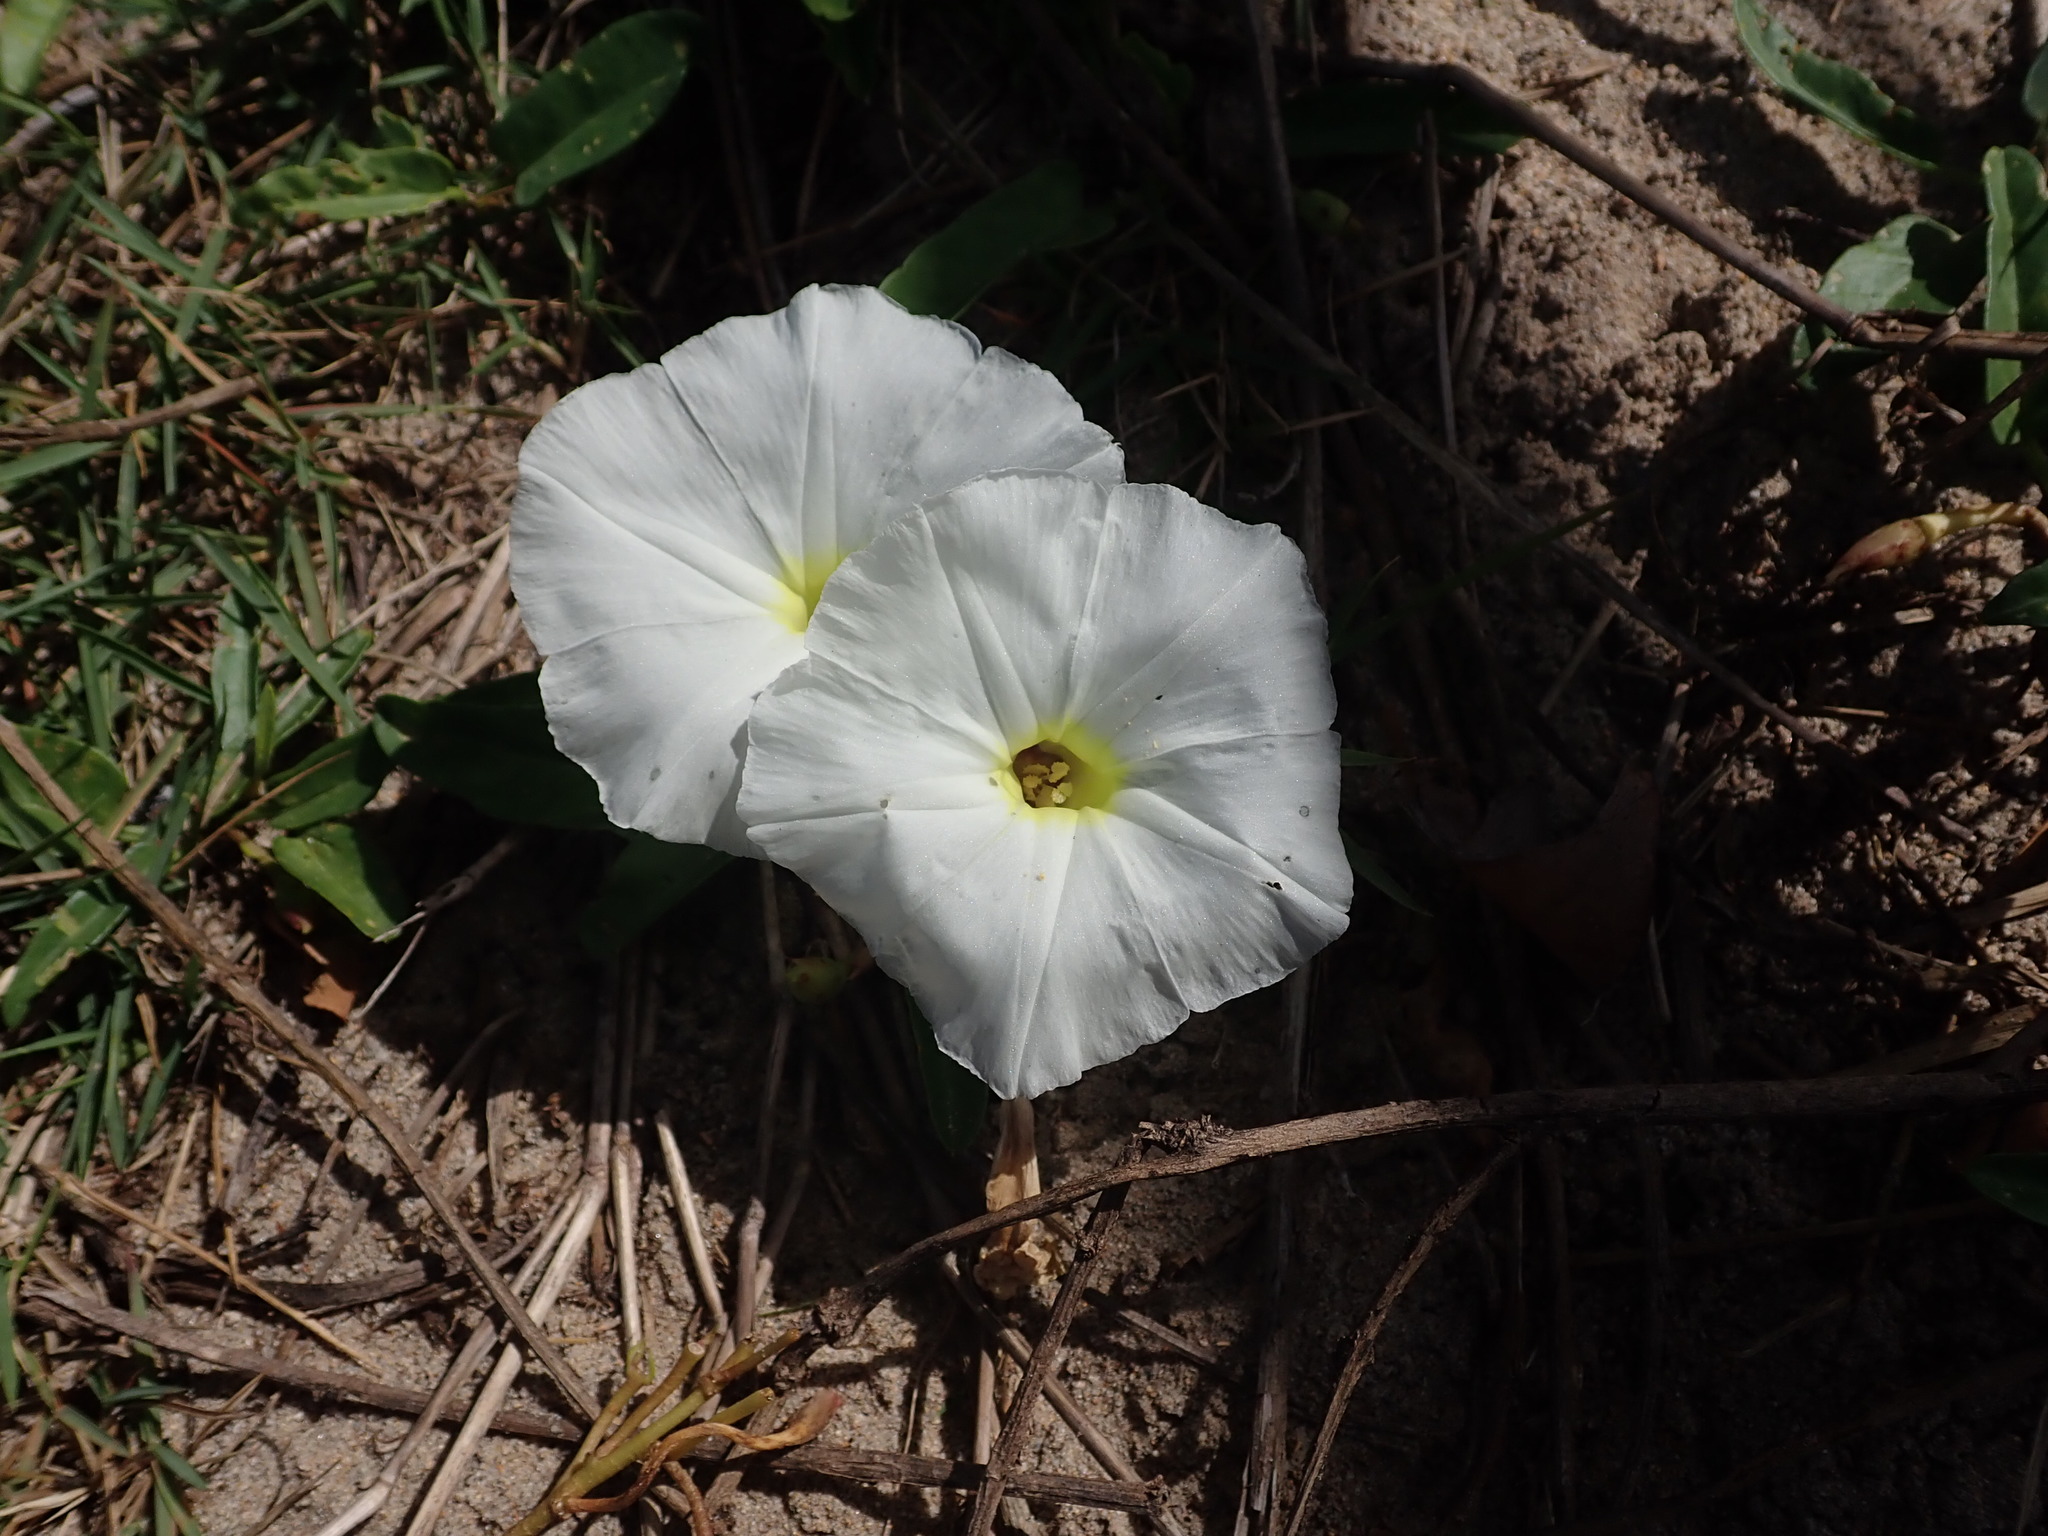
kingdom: Plantae
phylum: Tracheophyta
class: Magnoliopsida
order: Solanales
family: Convolvulaceae
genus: Ipomoea
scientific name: Ipomoea imperati
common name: Fiddle-leaf morning-glory
